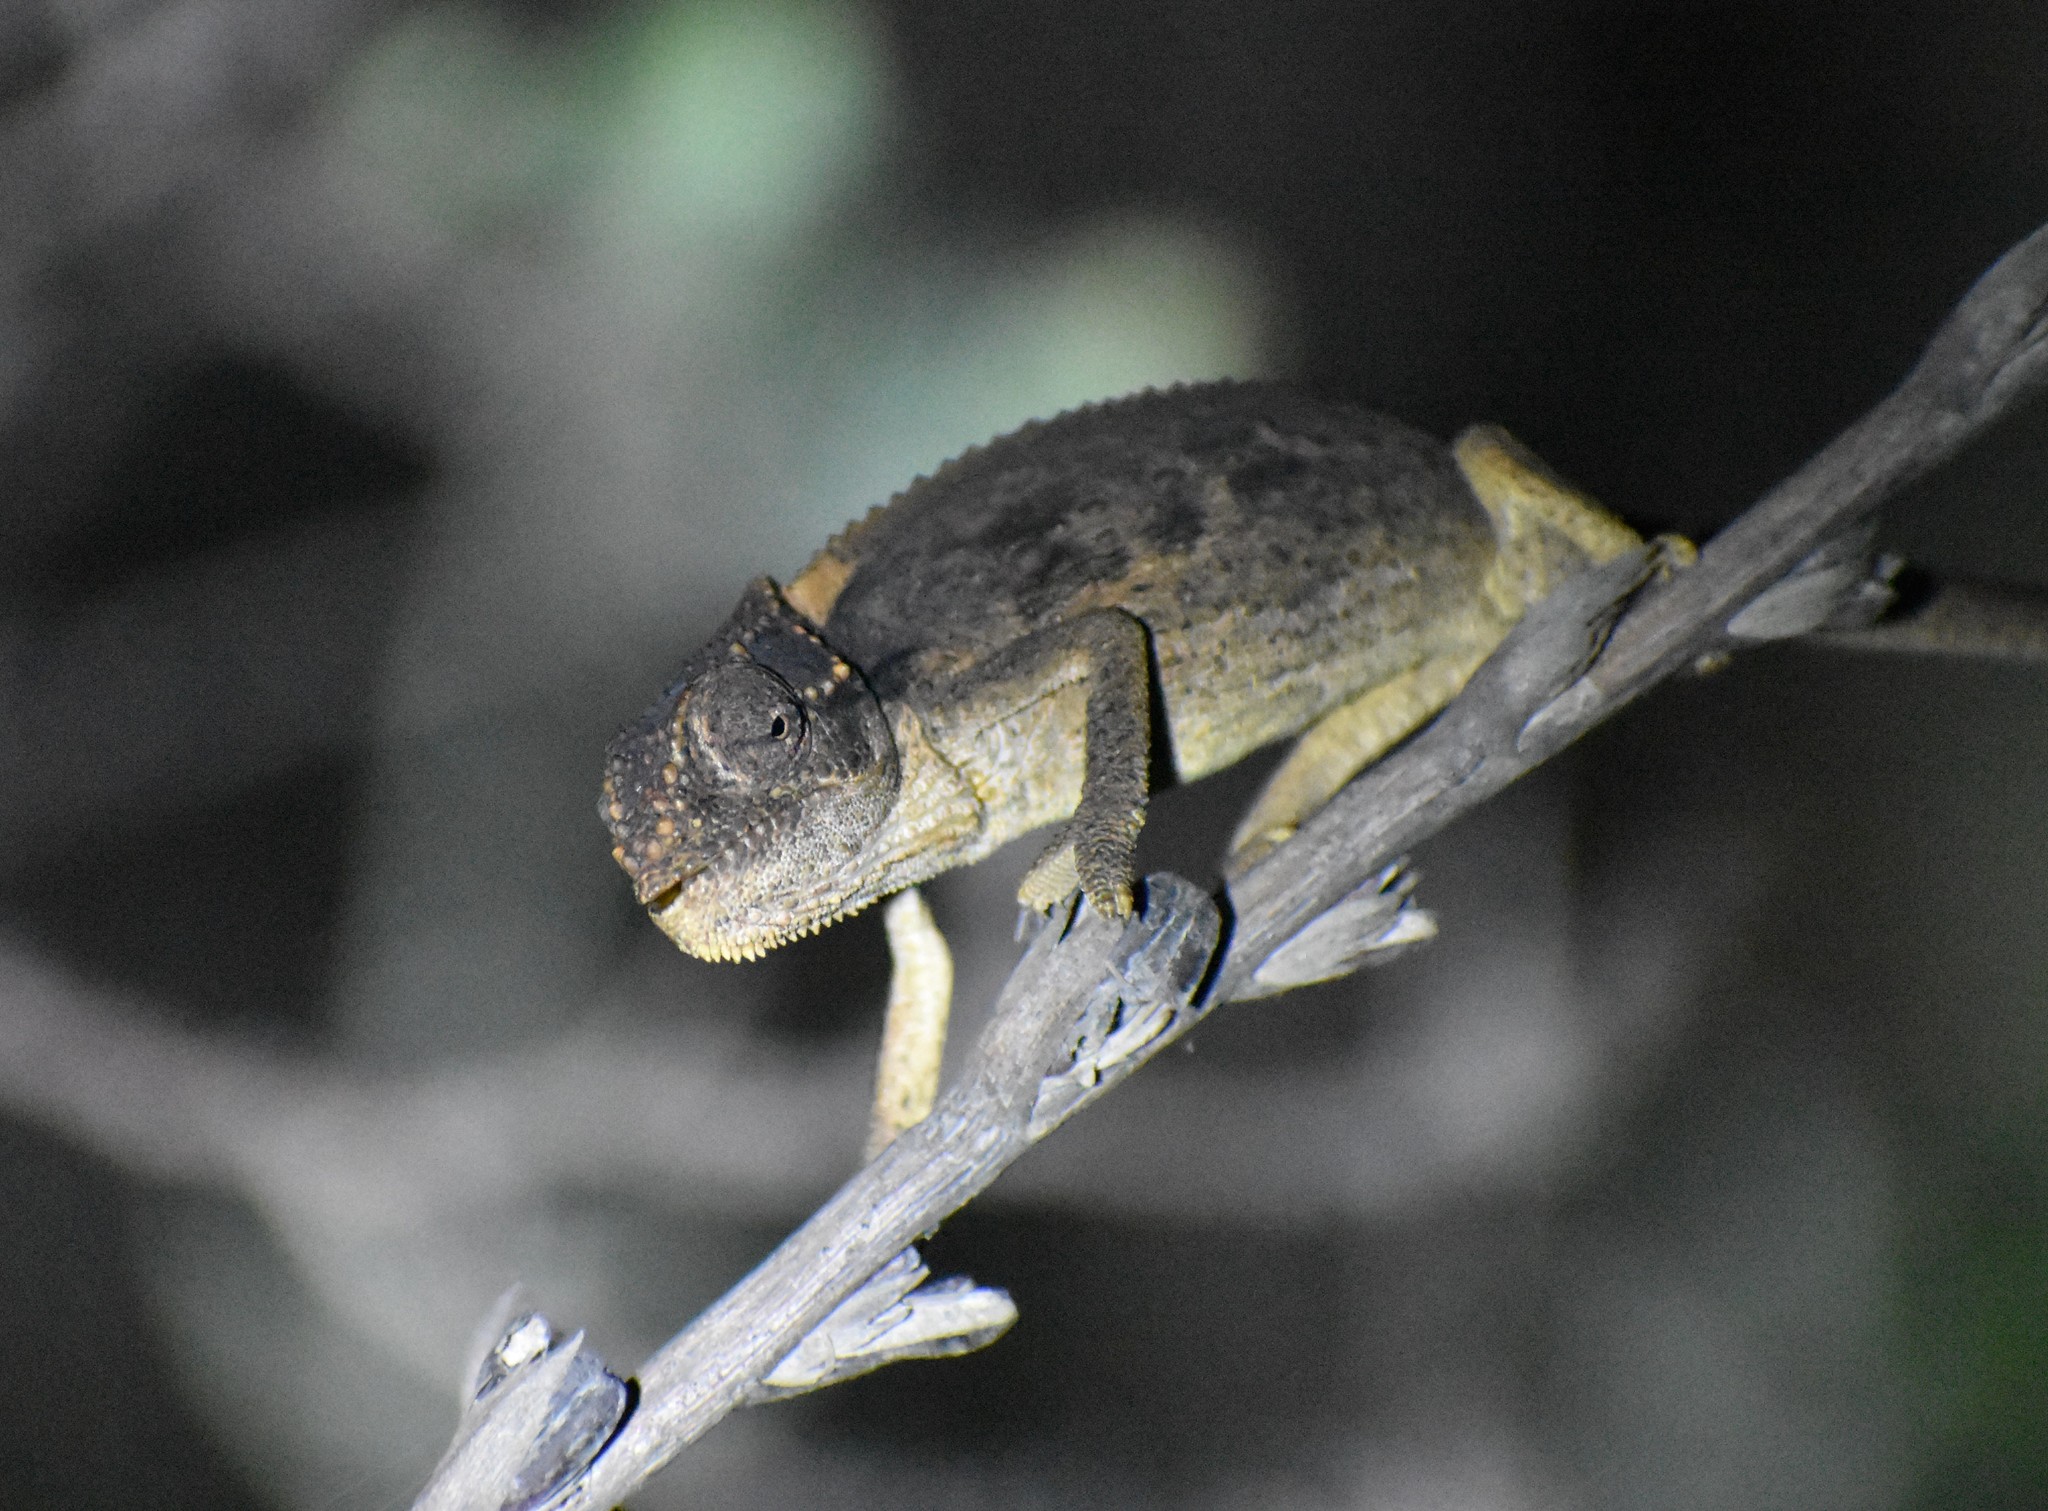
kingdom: Animalia
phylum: Chordata
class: Squamata
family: Chamaeleonidae
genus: Bradypodion
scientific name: Bradypodion atromontanum
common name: Swartberg dwarf chameleon
